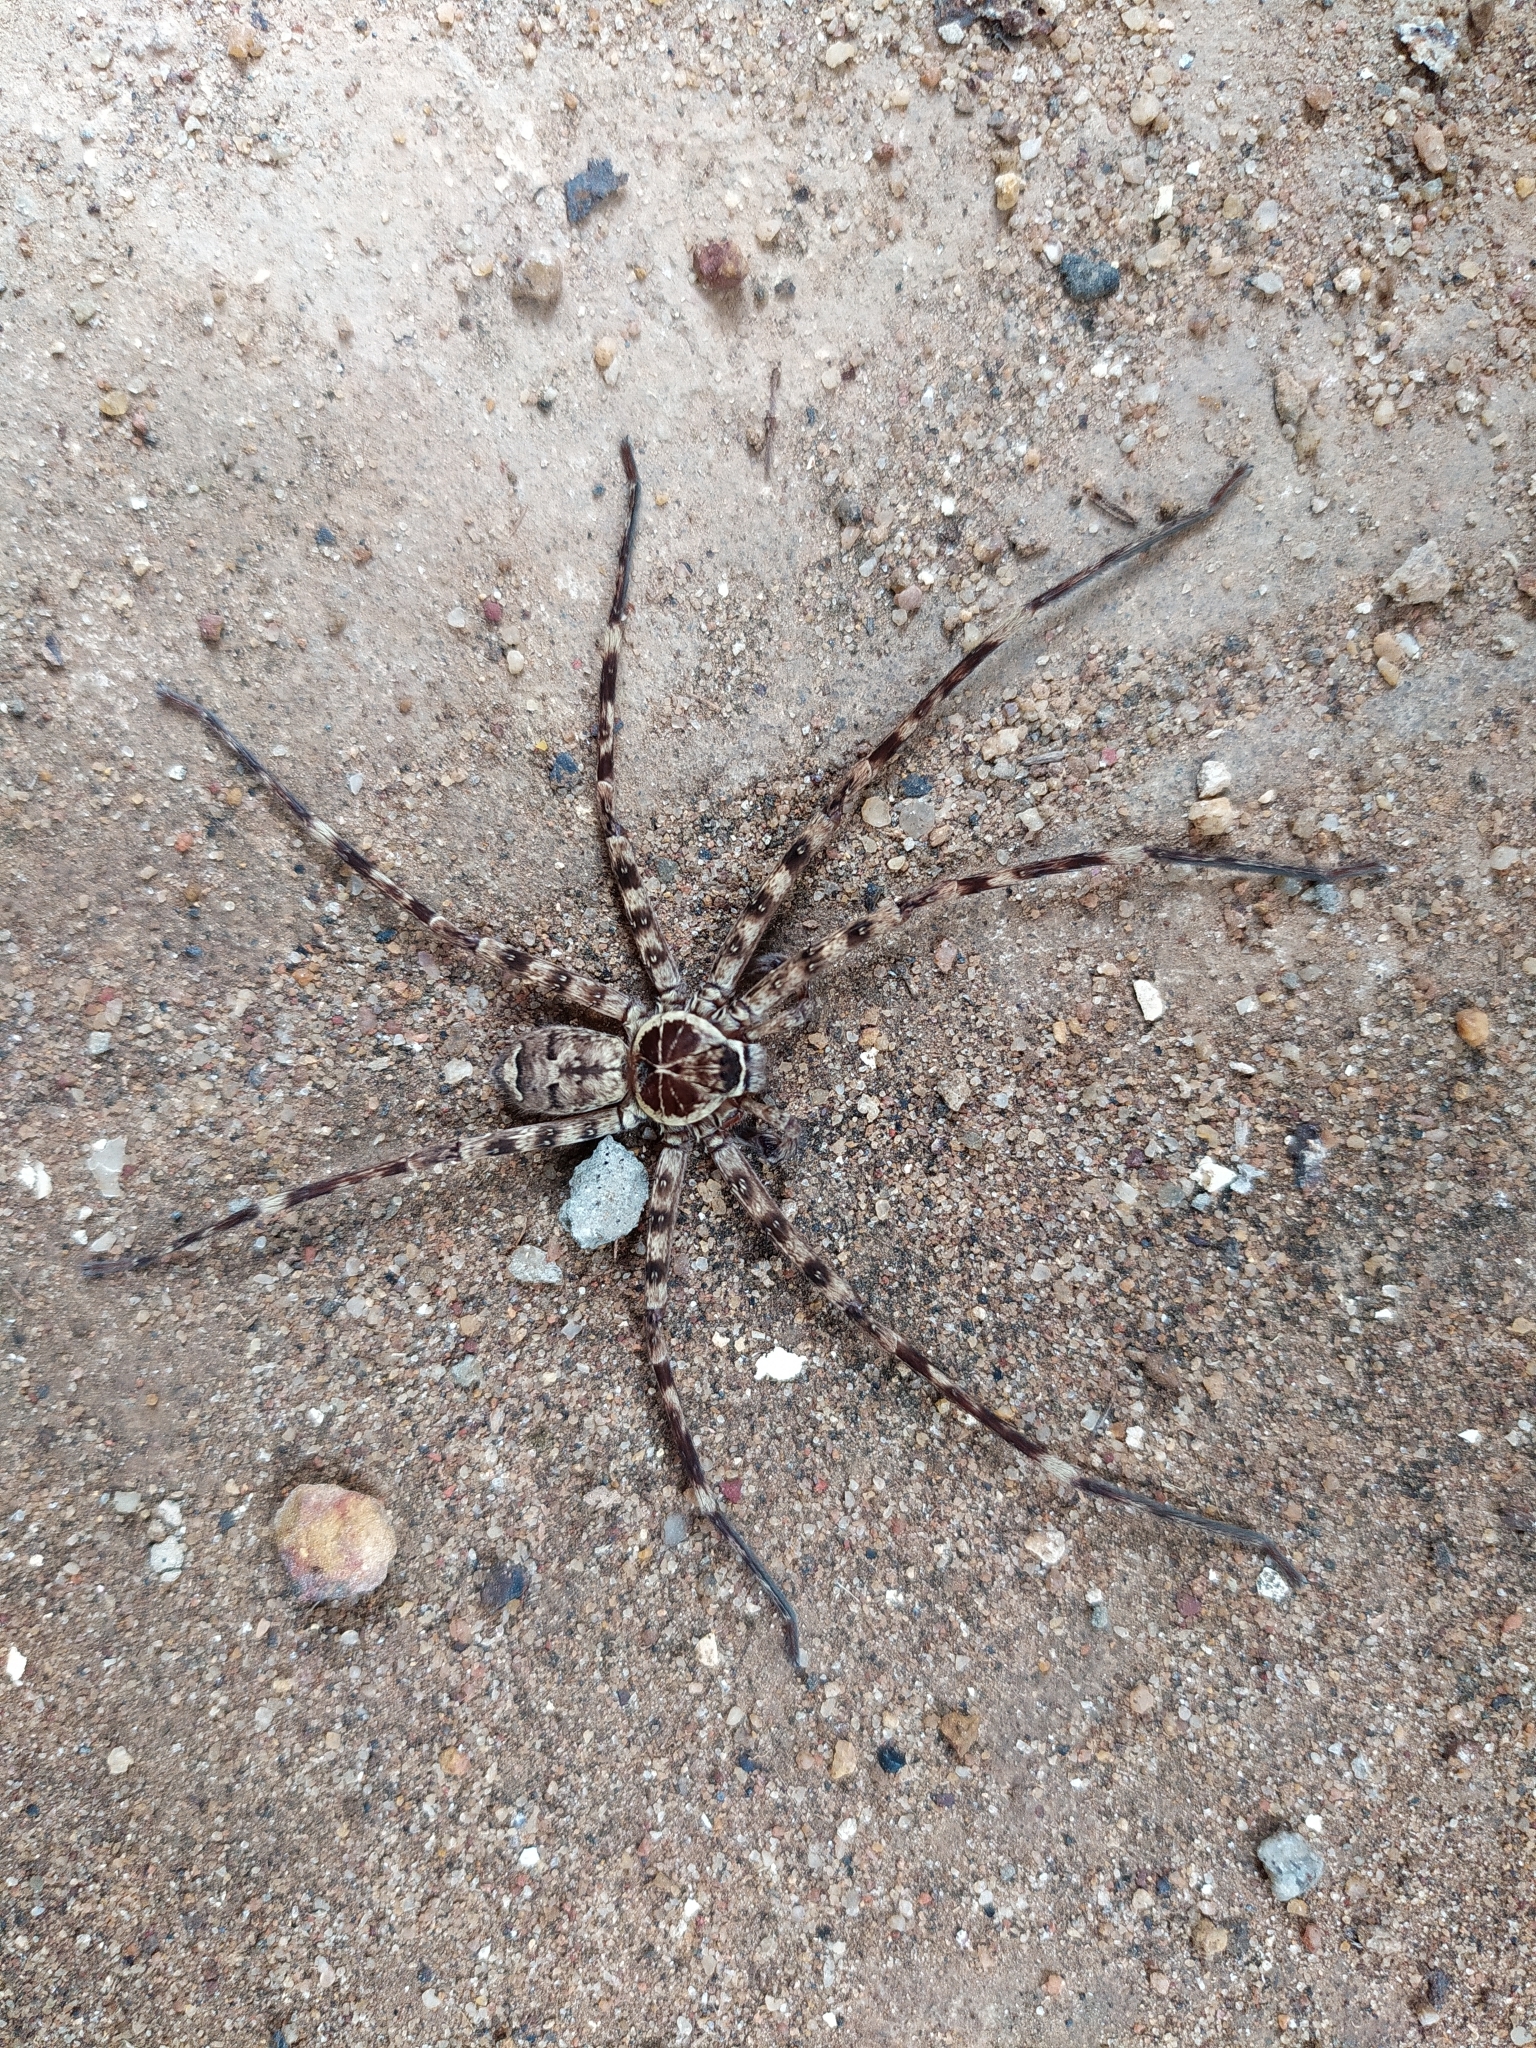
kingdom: Animalia
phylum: Arthropoda
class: Arachnida
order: Araneae
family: Sparassidae
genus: Heteropoda
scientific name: Heteropoda venatoria
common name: Huntsman spider
